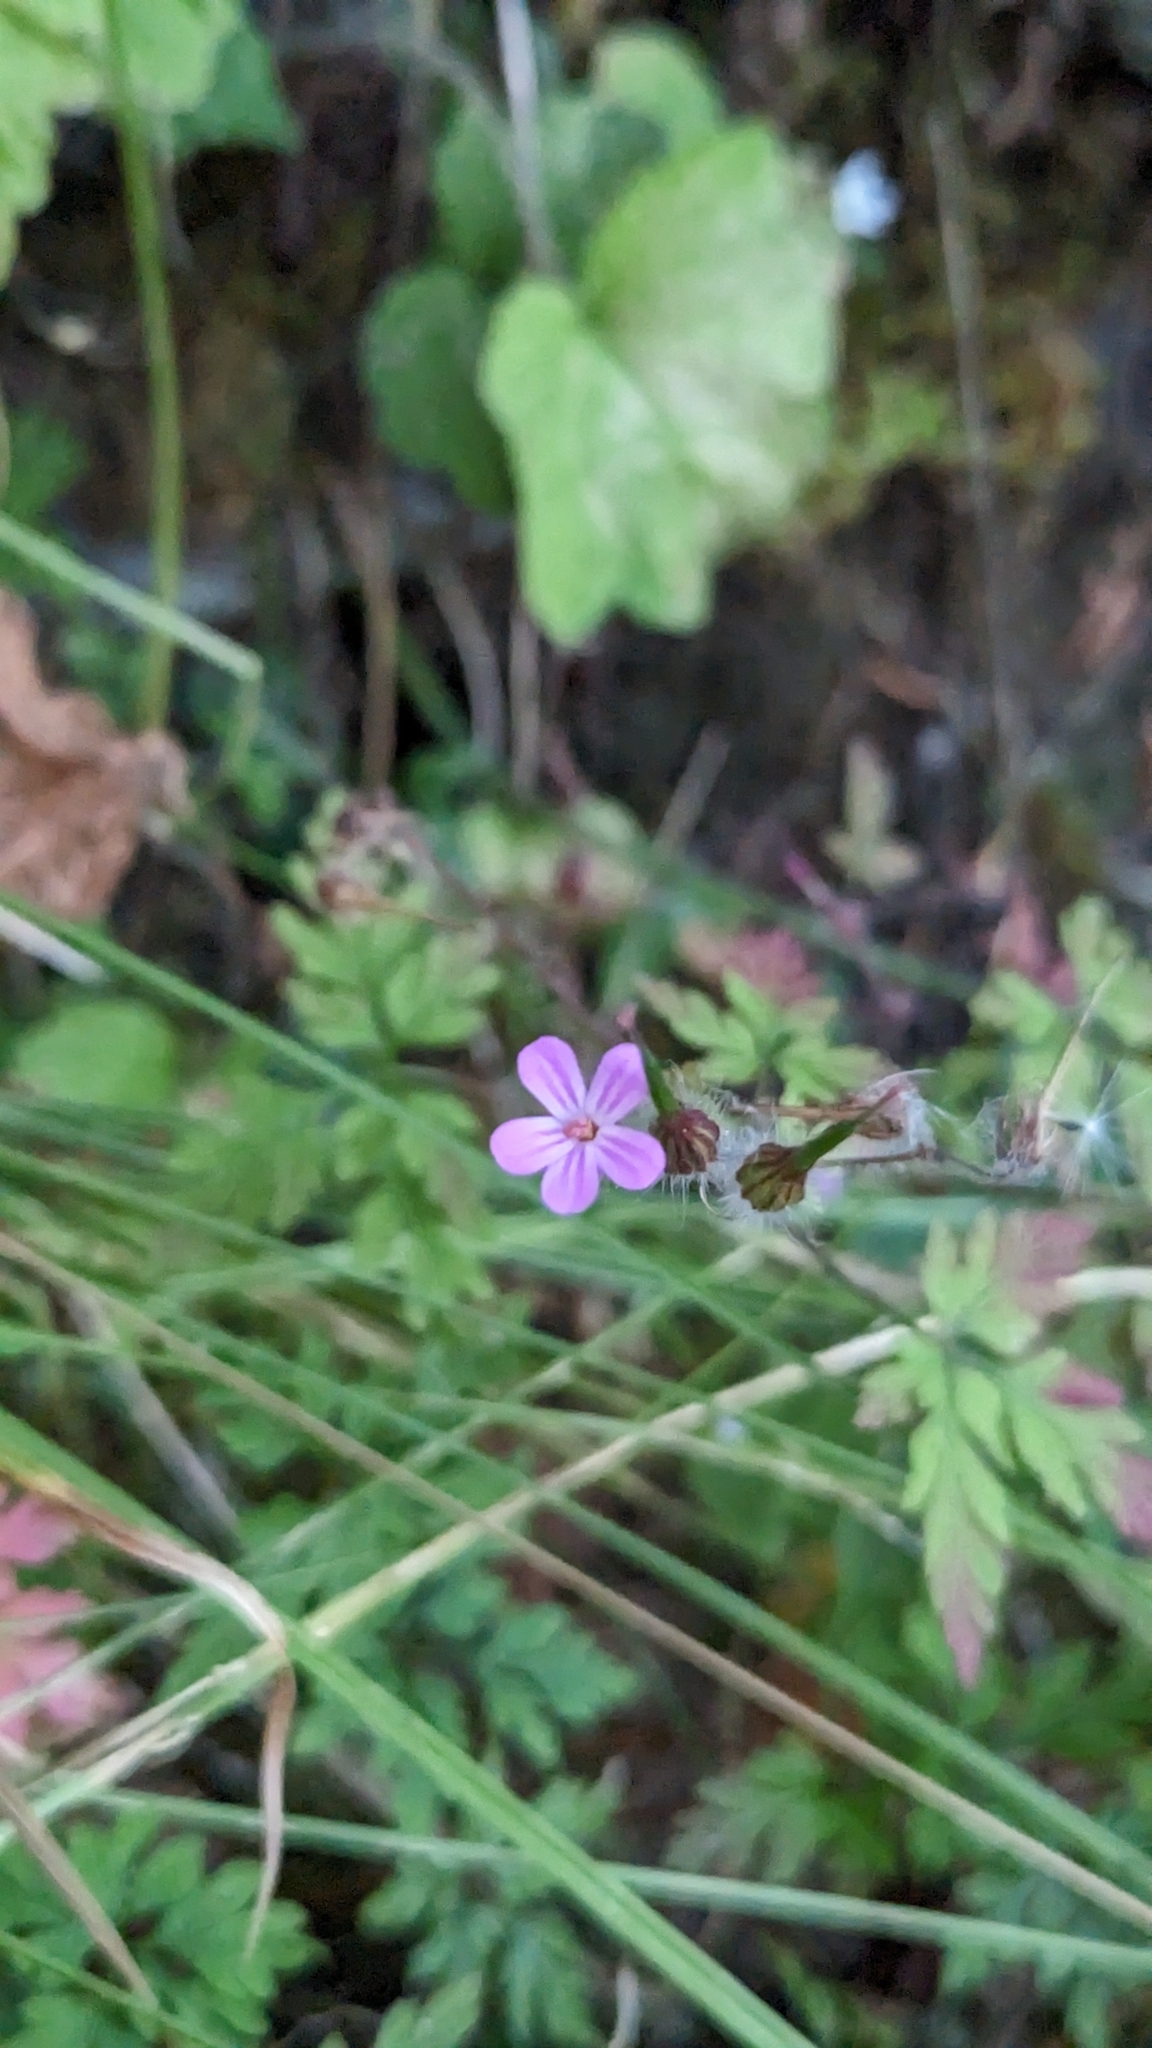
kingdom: Plantae
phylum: Tracheophyta
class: Magnoliopsida
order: Geraniales
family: Geraniaceae
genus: Geranium
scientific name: Geranium robertianum
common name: Herb-robert
